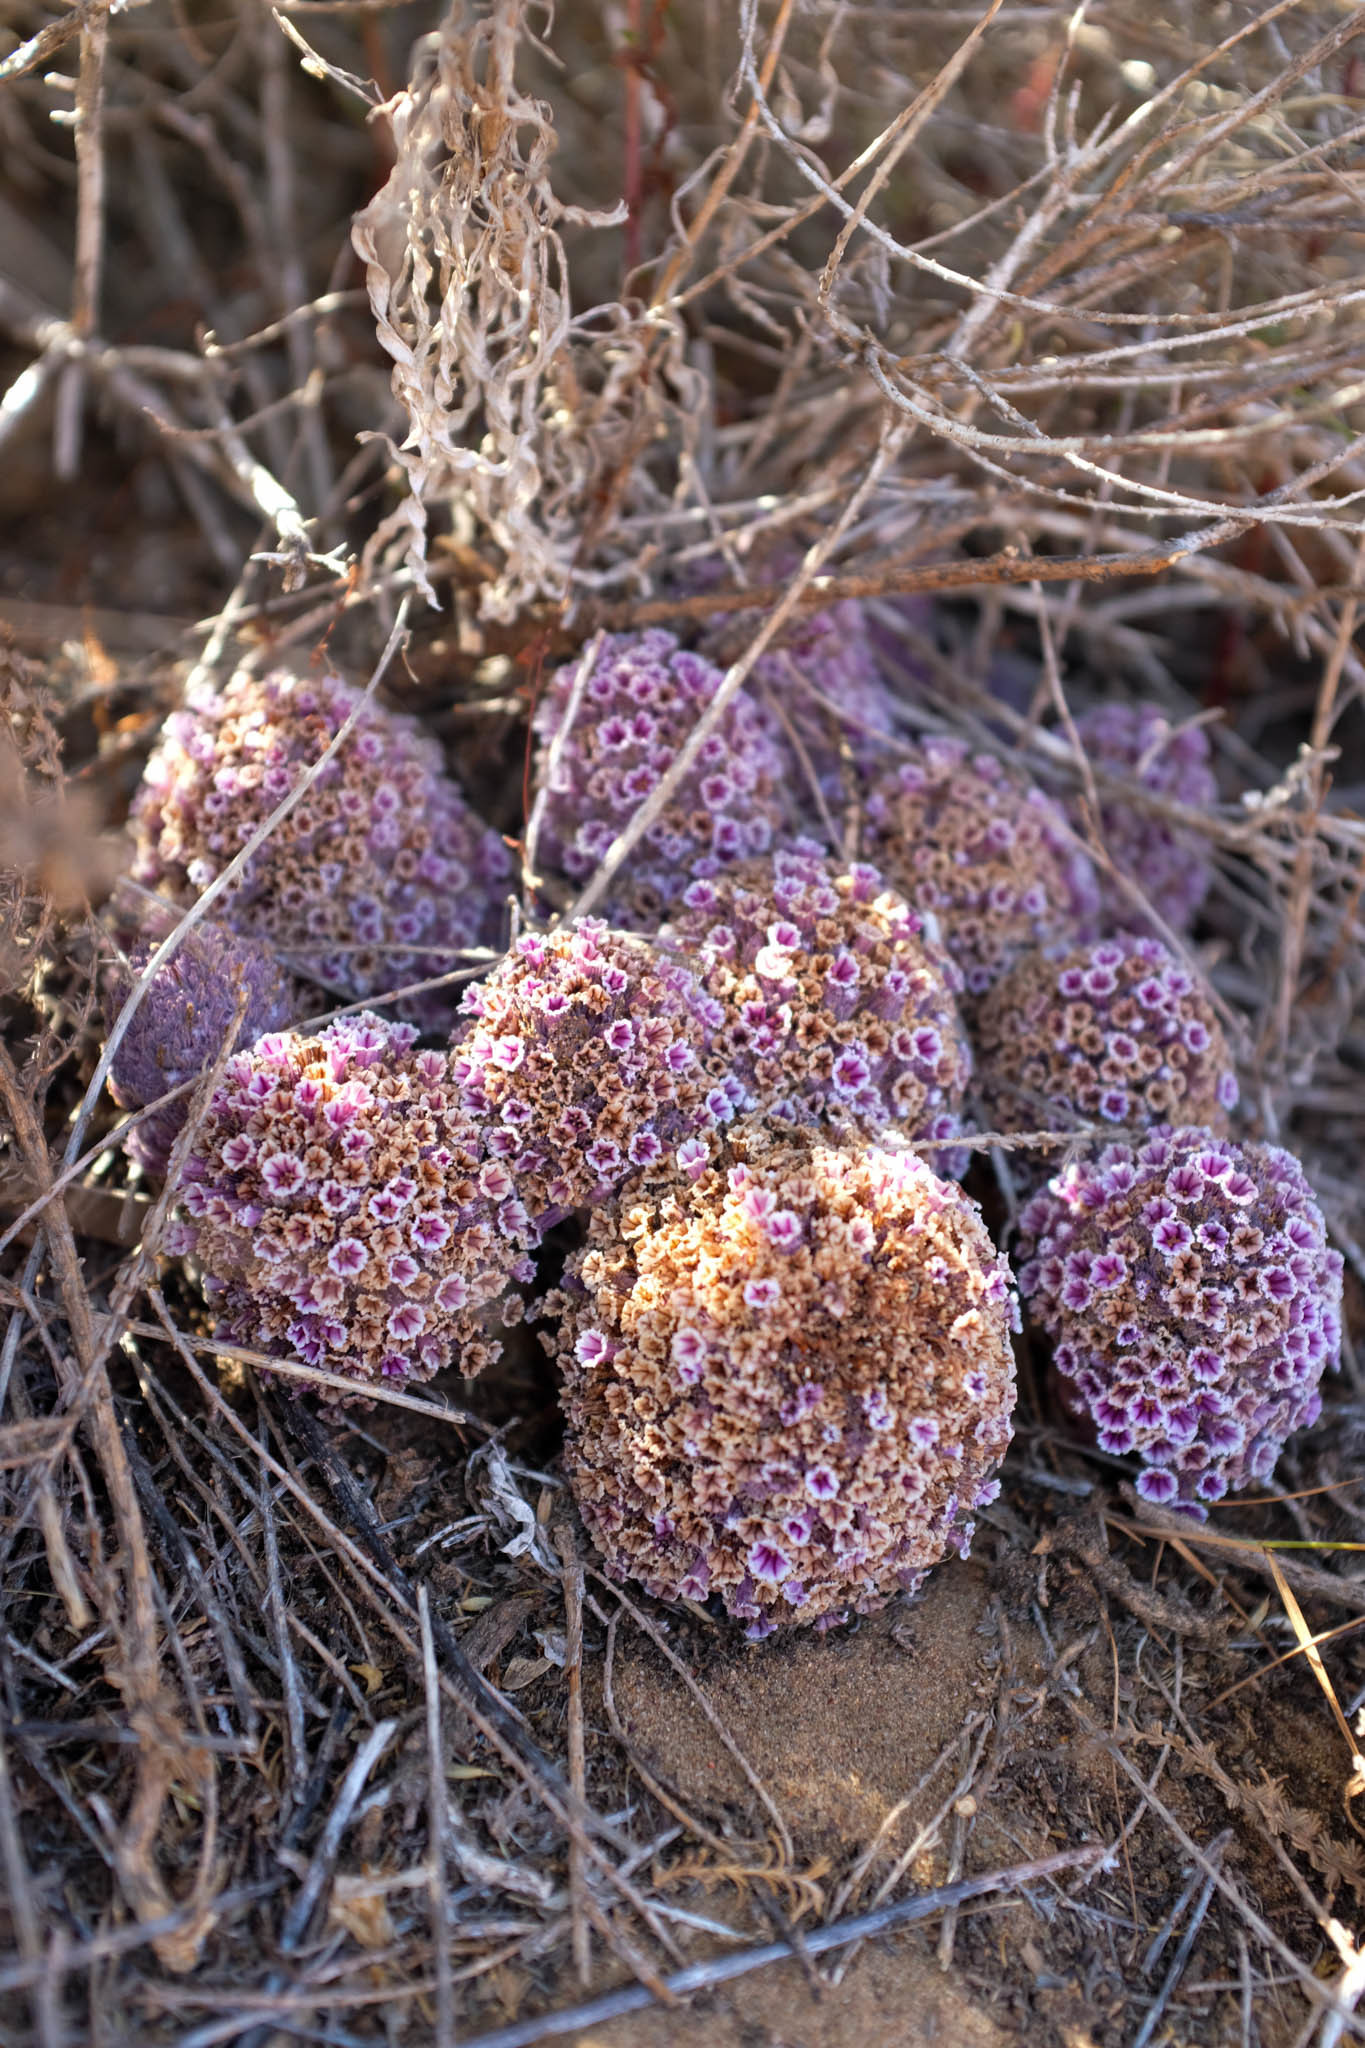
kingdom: Plantae
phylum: Tracheophyta
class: Magnoliopsida
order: Boraginales
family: Lennoaceae
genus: Pholisma
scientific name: Pholisma arenarium
